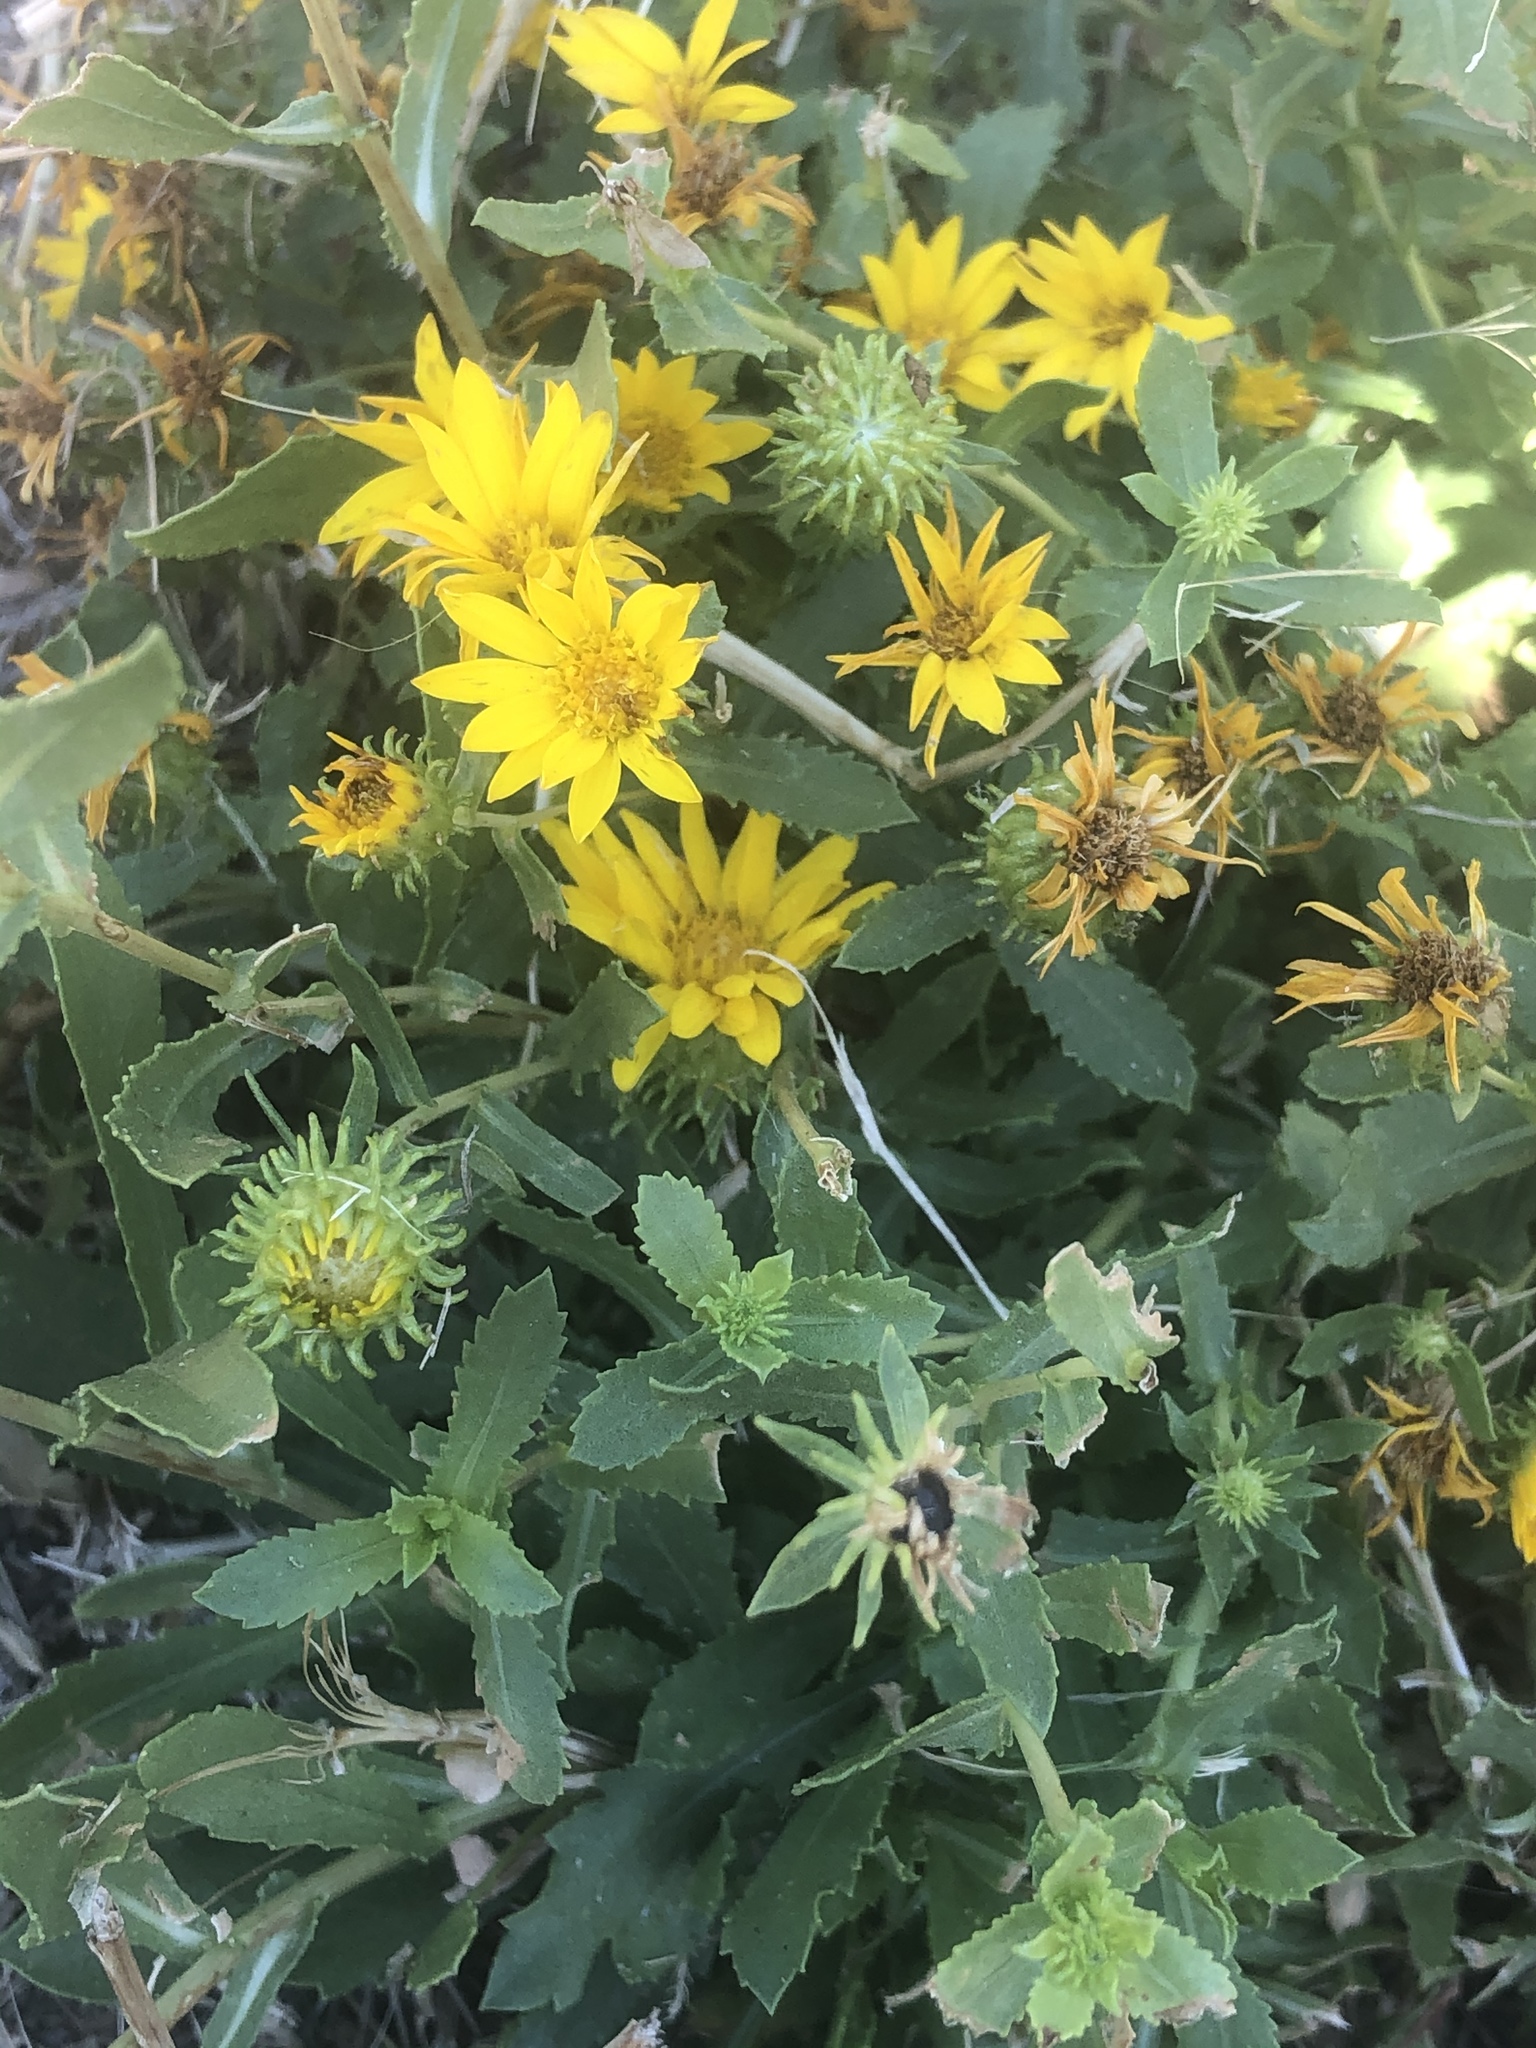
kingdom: Plantae
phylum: Tracheophyta
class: Magnoliopsida
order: Asterales
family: Asteraceae
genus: Grindelia
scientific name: Grindelia squarrosa
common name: Curly-cup gumweed
